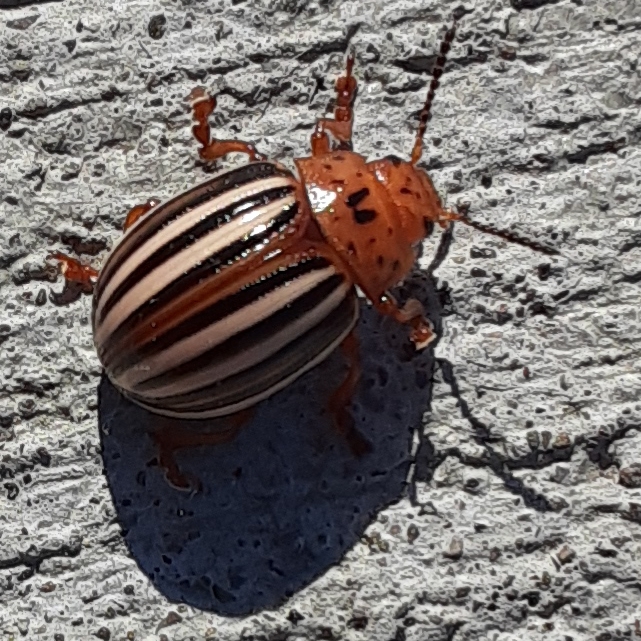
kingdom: Animalia
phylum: Arthropoda
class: Insecta
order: Coleoptera
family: Chrysomelidae
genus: Leptinotarsa
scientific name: Leptinotarsa juncta
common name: False potato beetle
